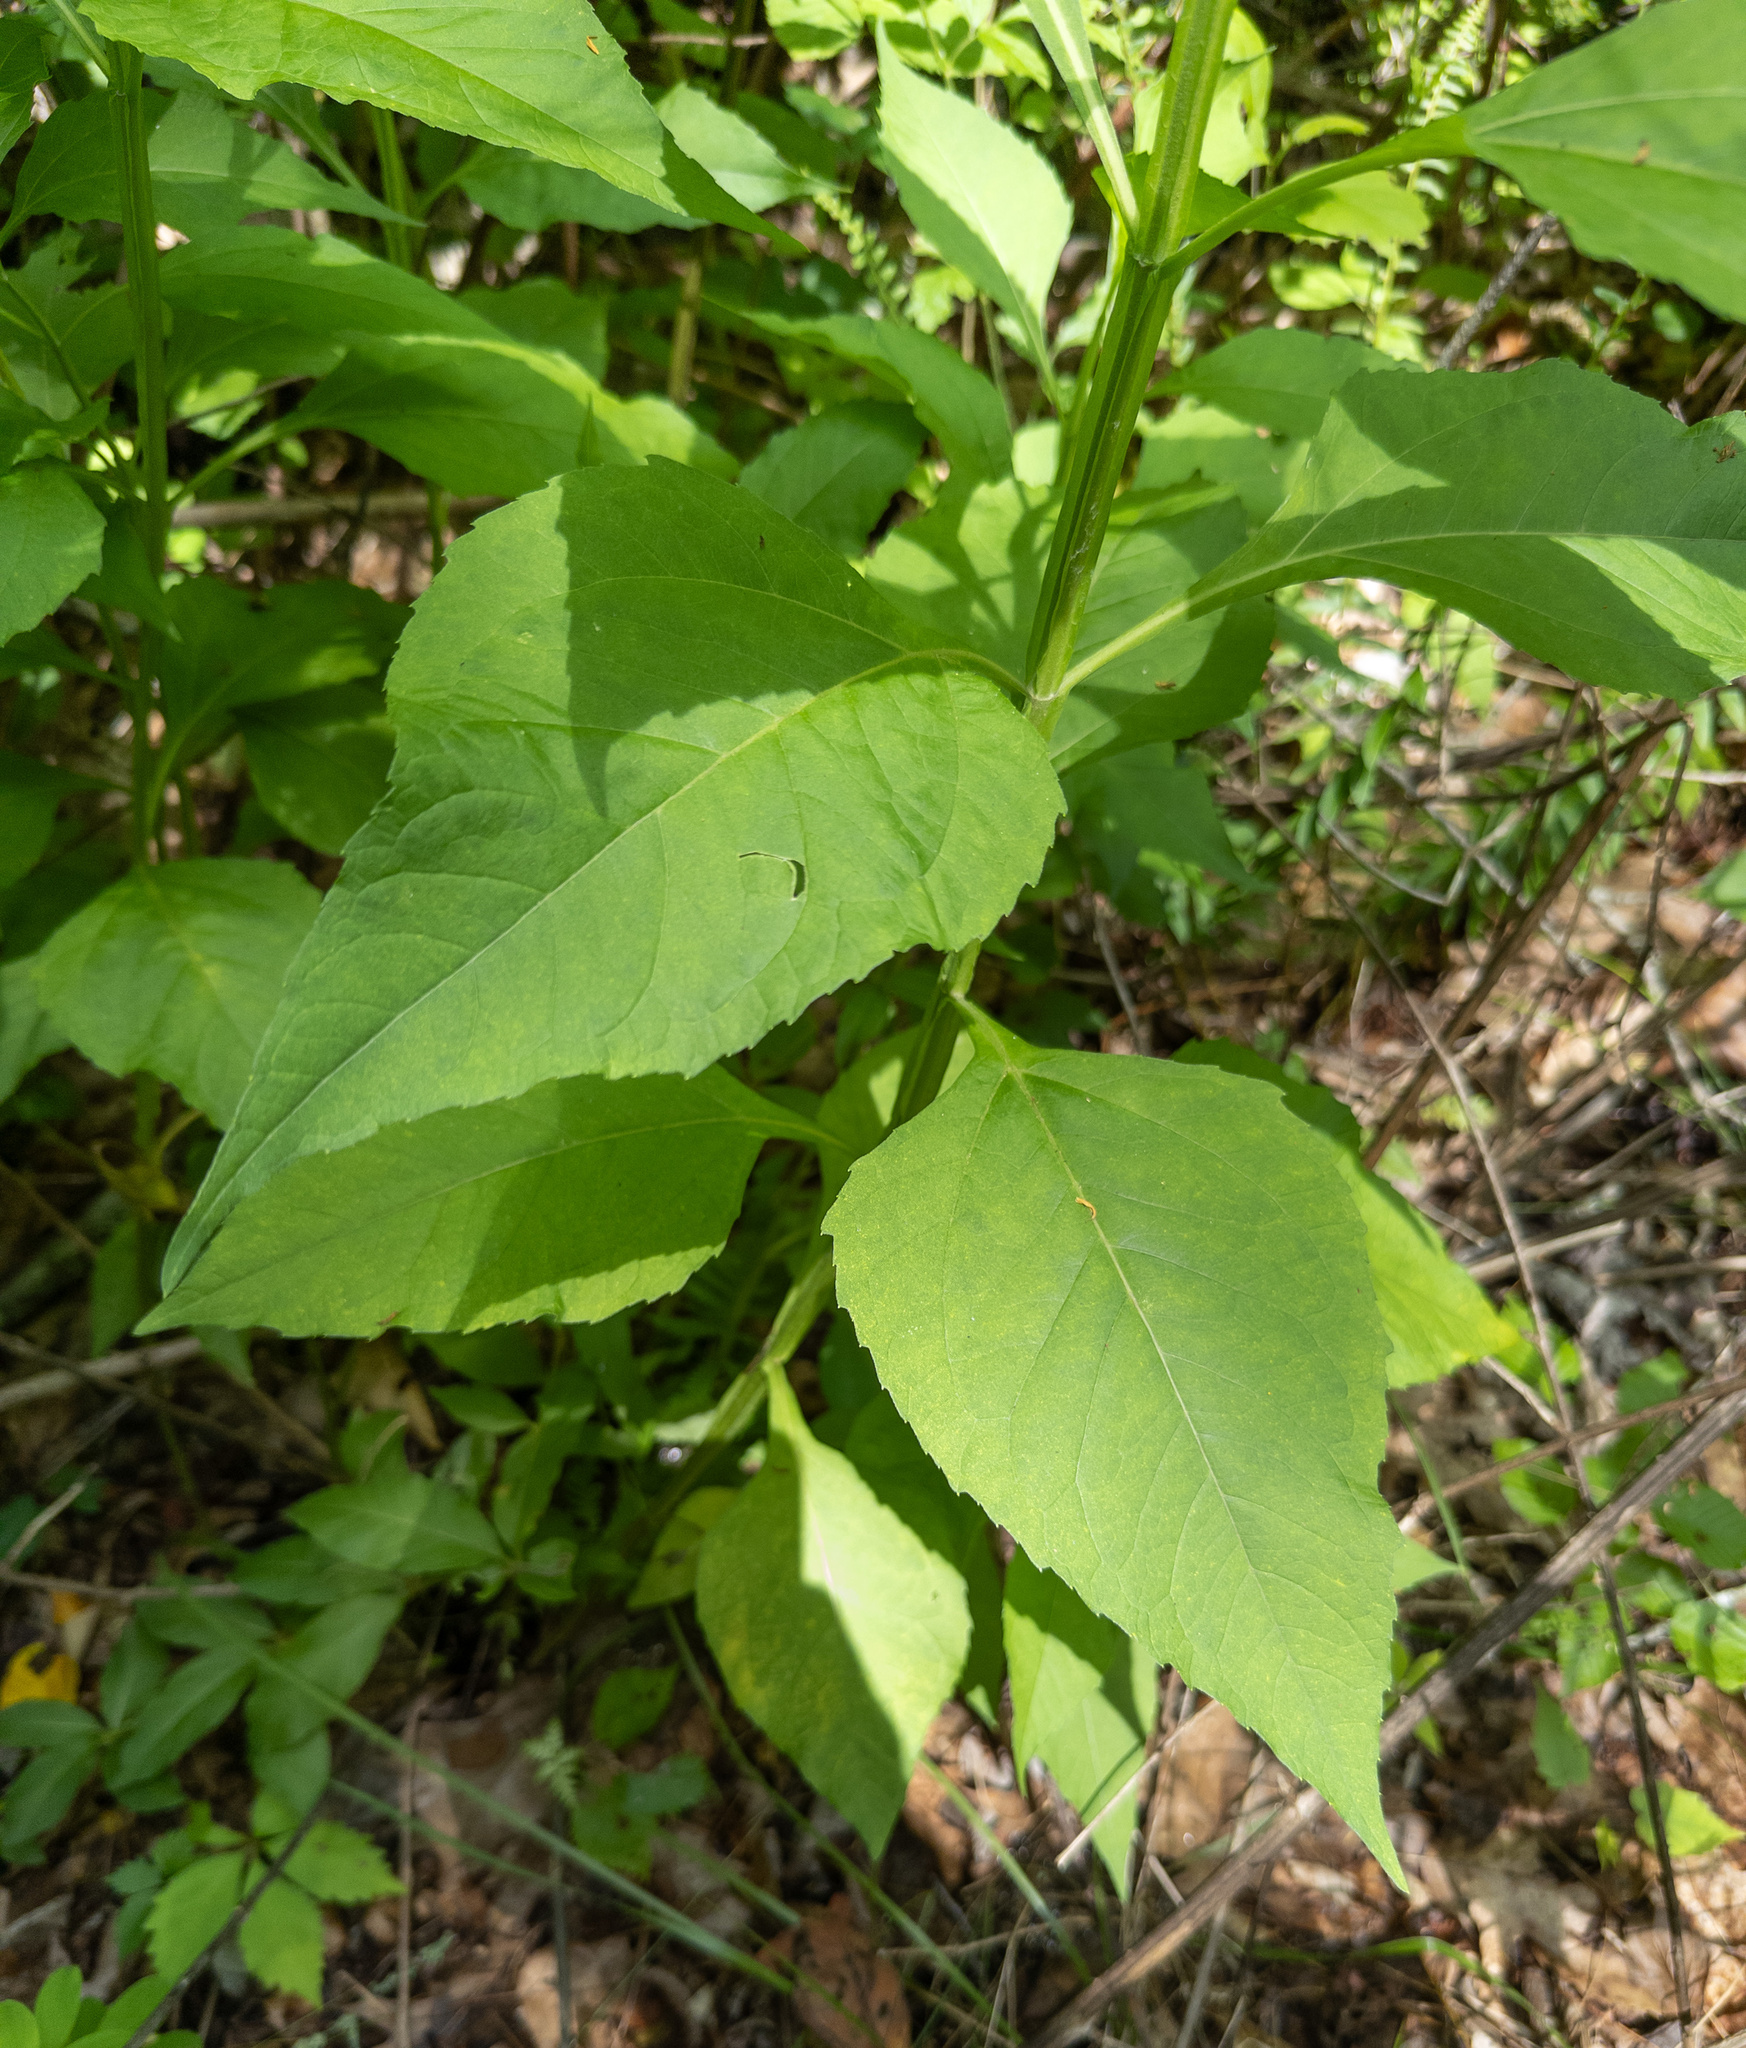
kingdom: Plantae
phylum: Tracheophyta
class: Magnoliopsida
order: Asterales
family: Asteraceae
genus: Verbesina
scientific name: Verbesina occidentalis
